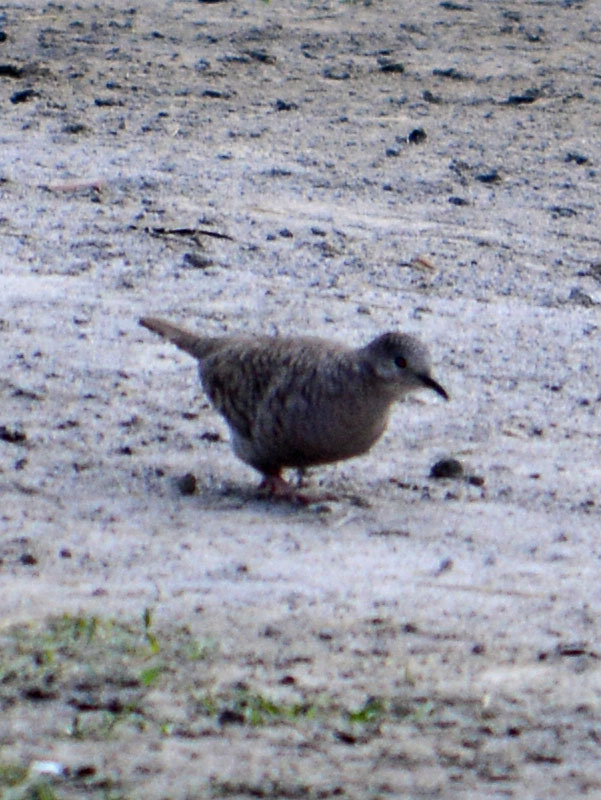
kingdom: Animalia
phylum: Chordata
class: Aves
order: Columbiformes
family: Columbidae
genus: Columbina
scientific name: Columbina inca
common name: Inca dove
